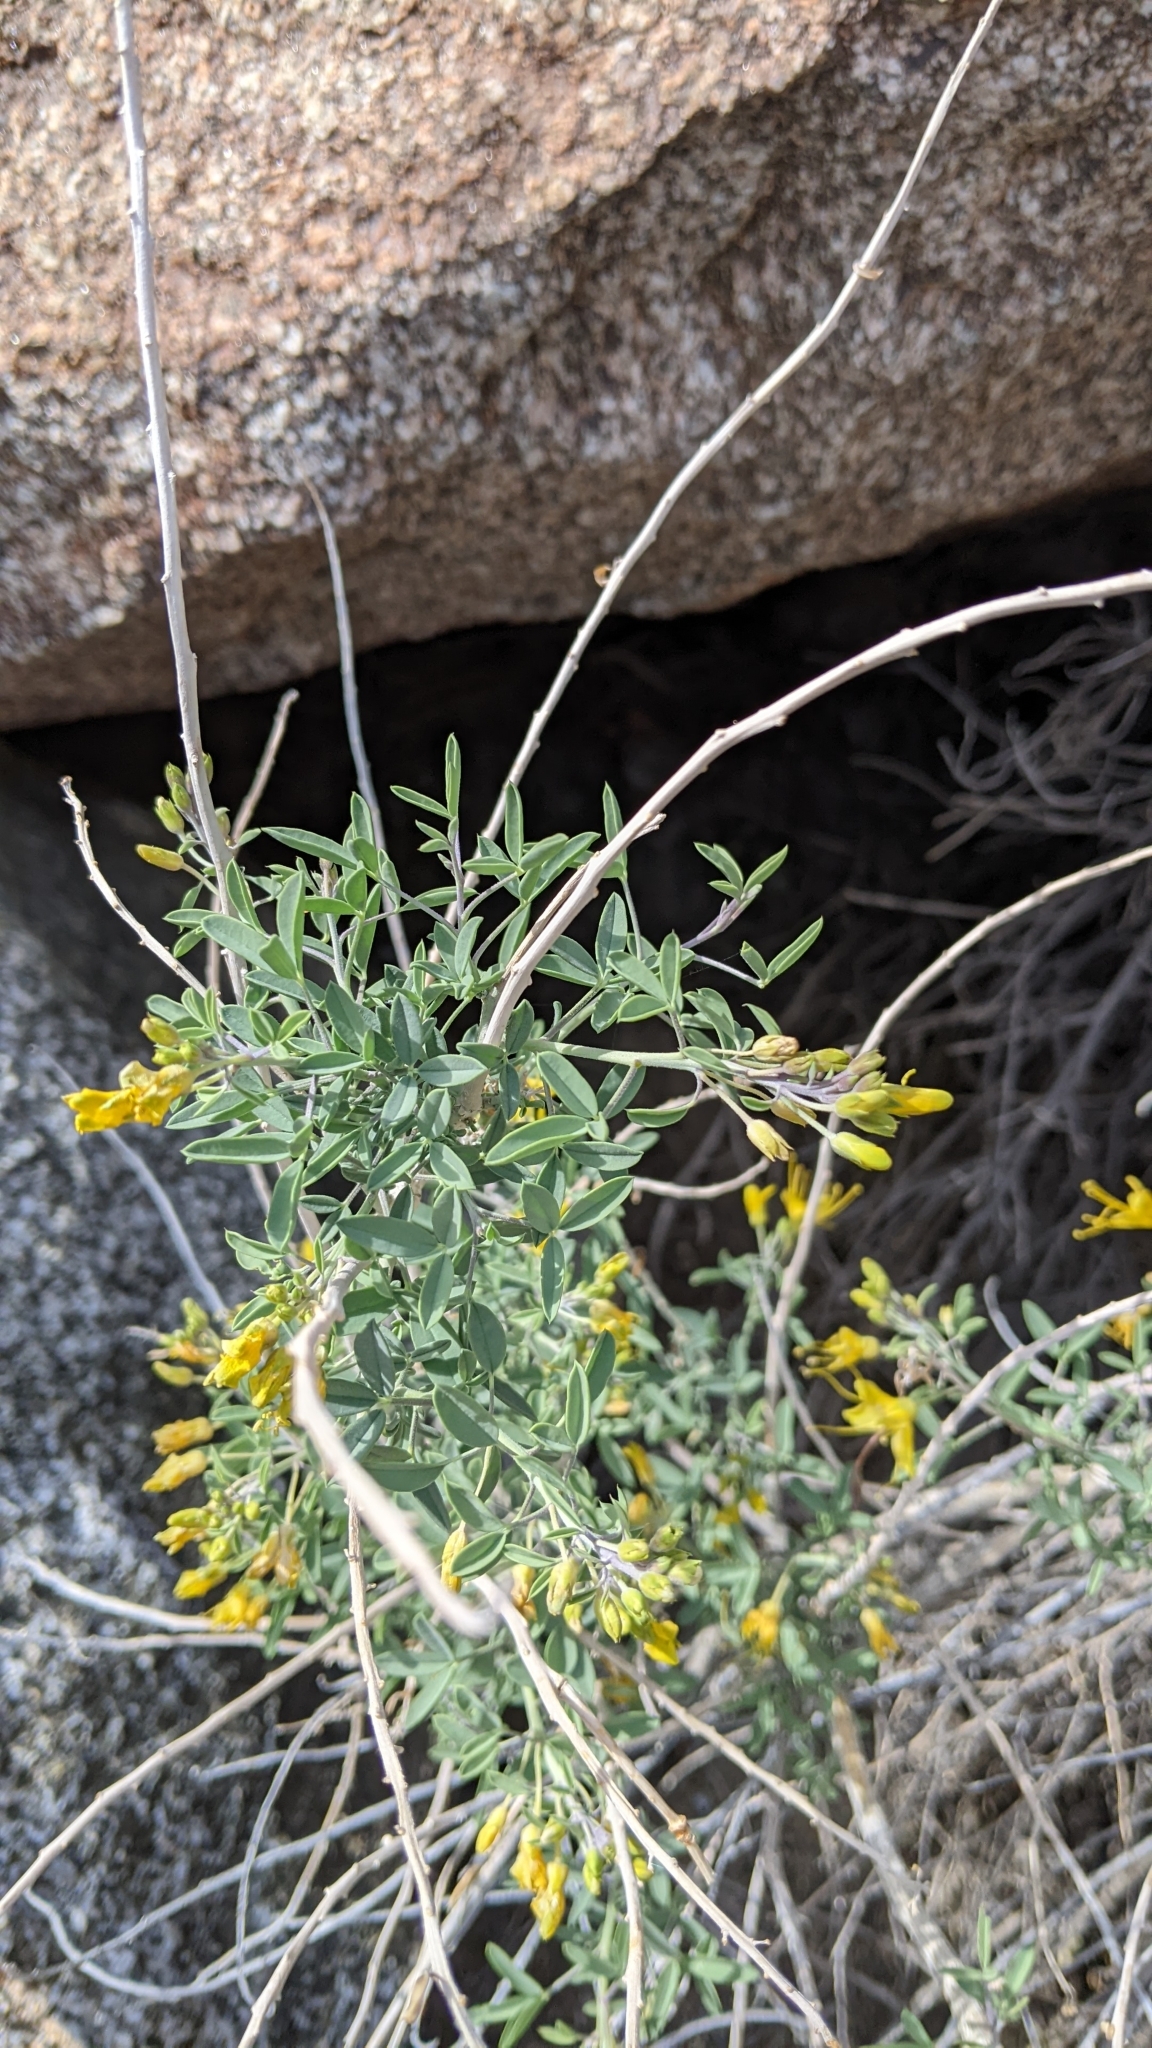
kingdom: Plantae
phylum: Tracheophyta
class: Magnoliopsida
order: Brassicales
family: Cleomaceae
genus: Cleomella
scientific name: Cleomella arborea
